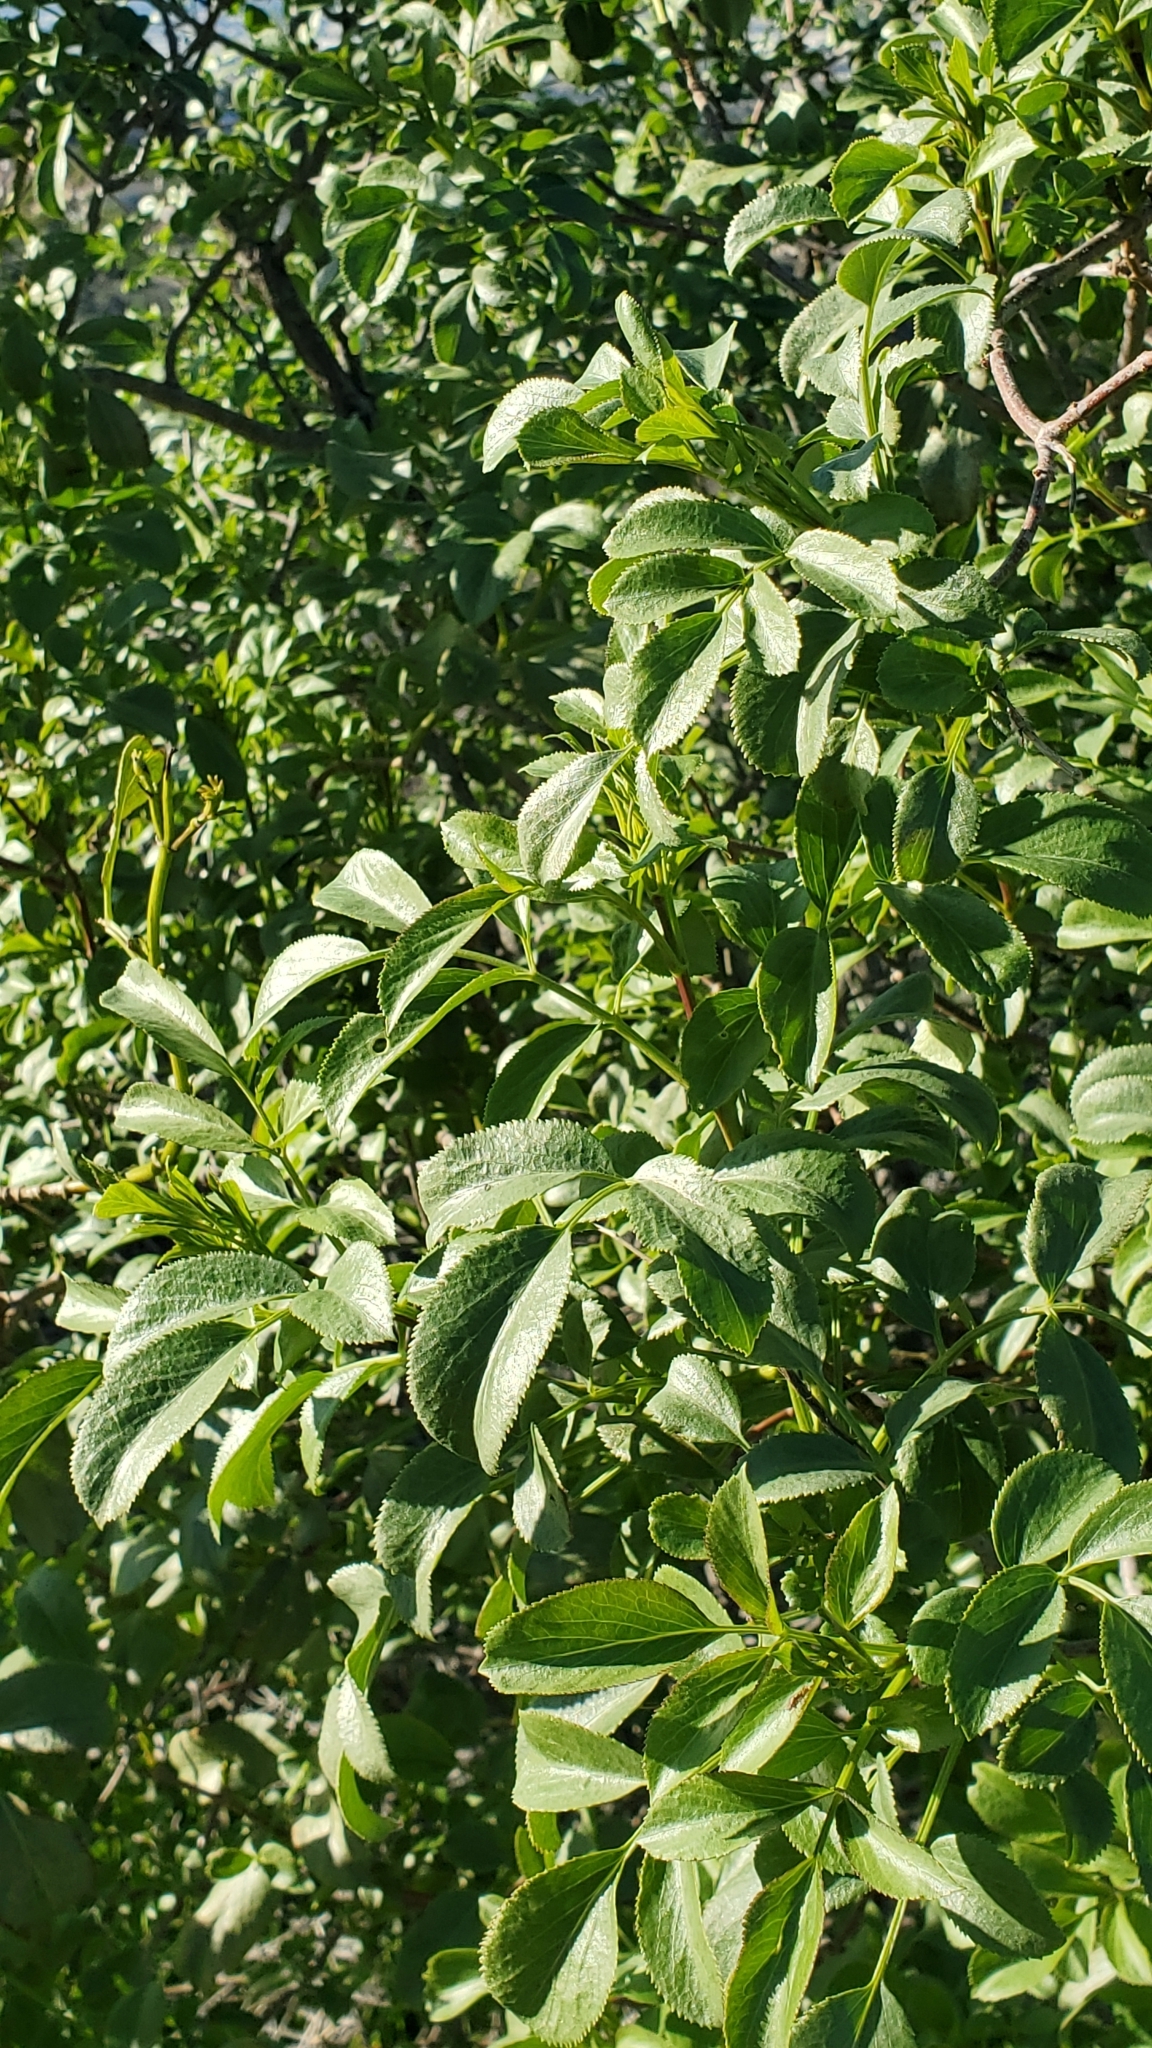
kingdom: Plantae
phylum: Tracheophyta
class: Magnoliopsida
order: Dipsacales
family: Viburnaceae
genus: Sambucus
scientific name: Sambucus cerulea
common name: Blue elder
